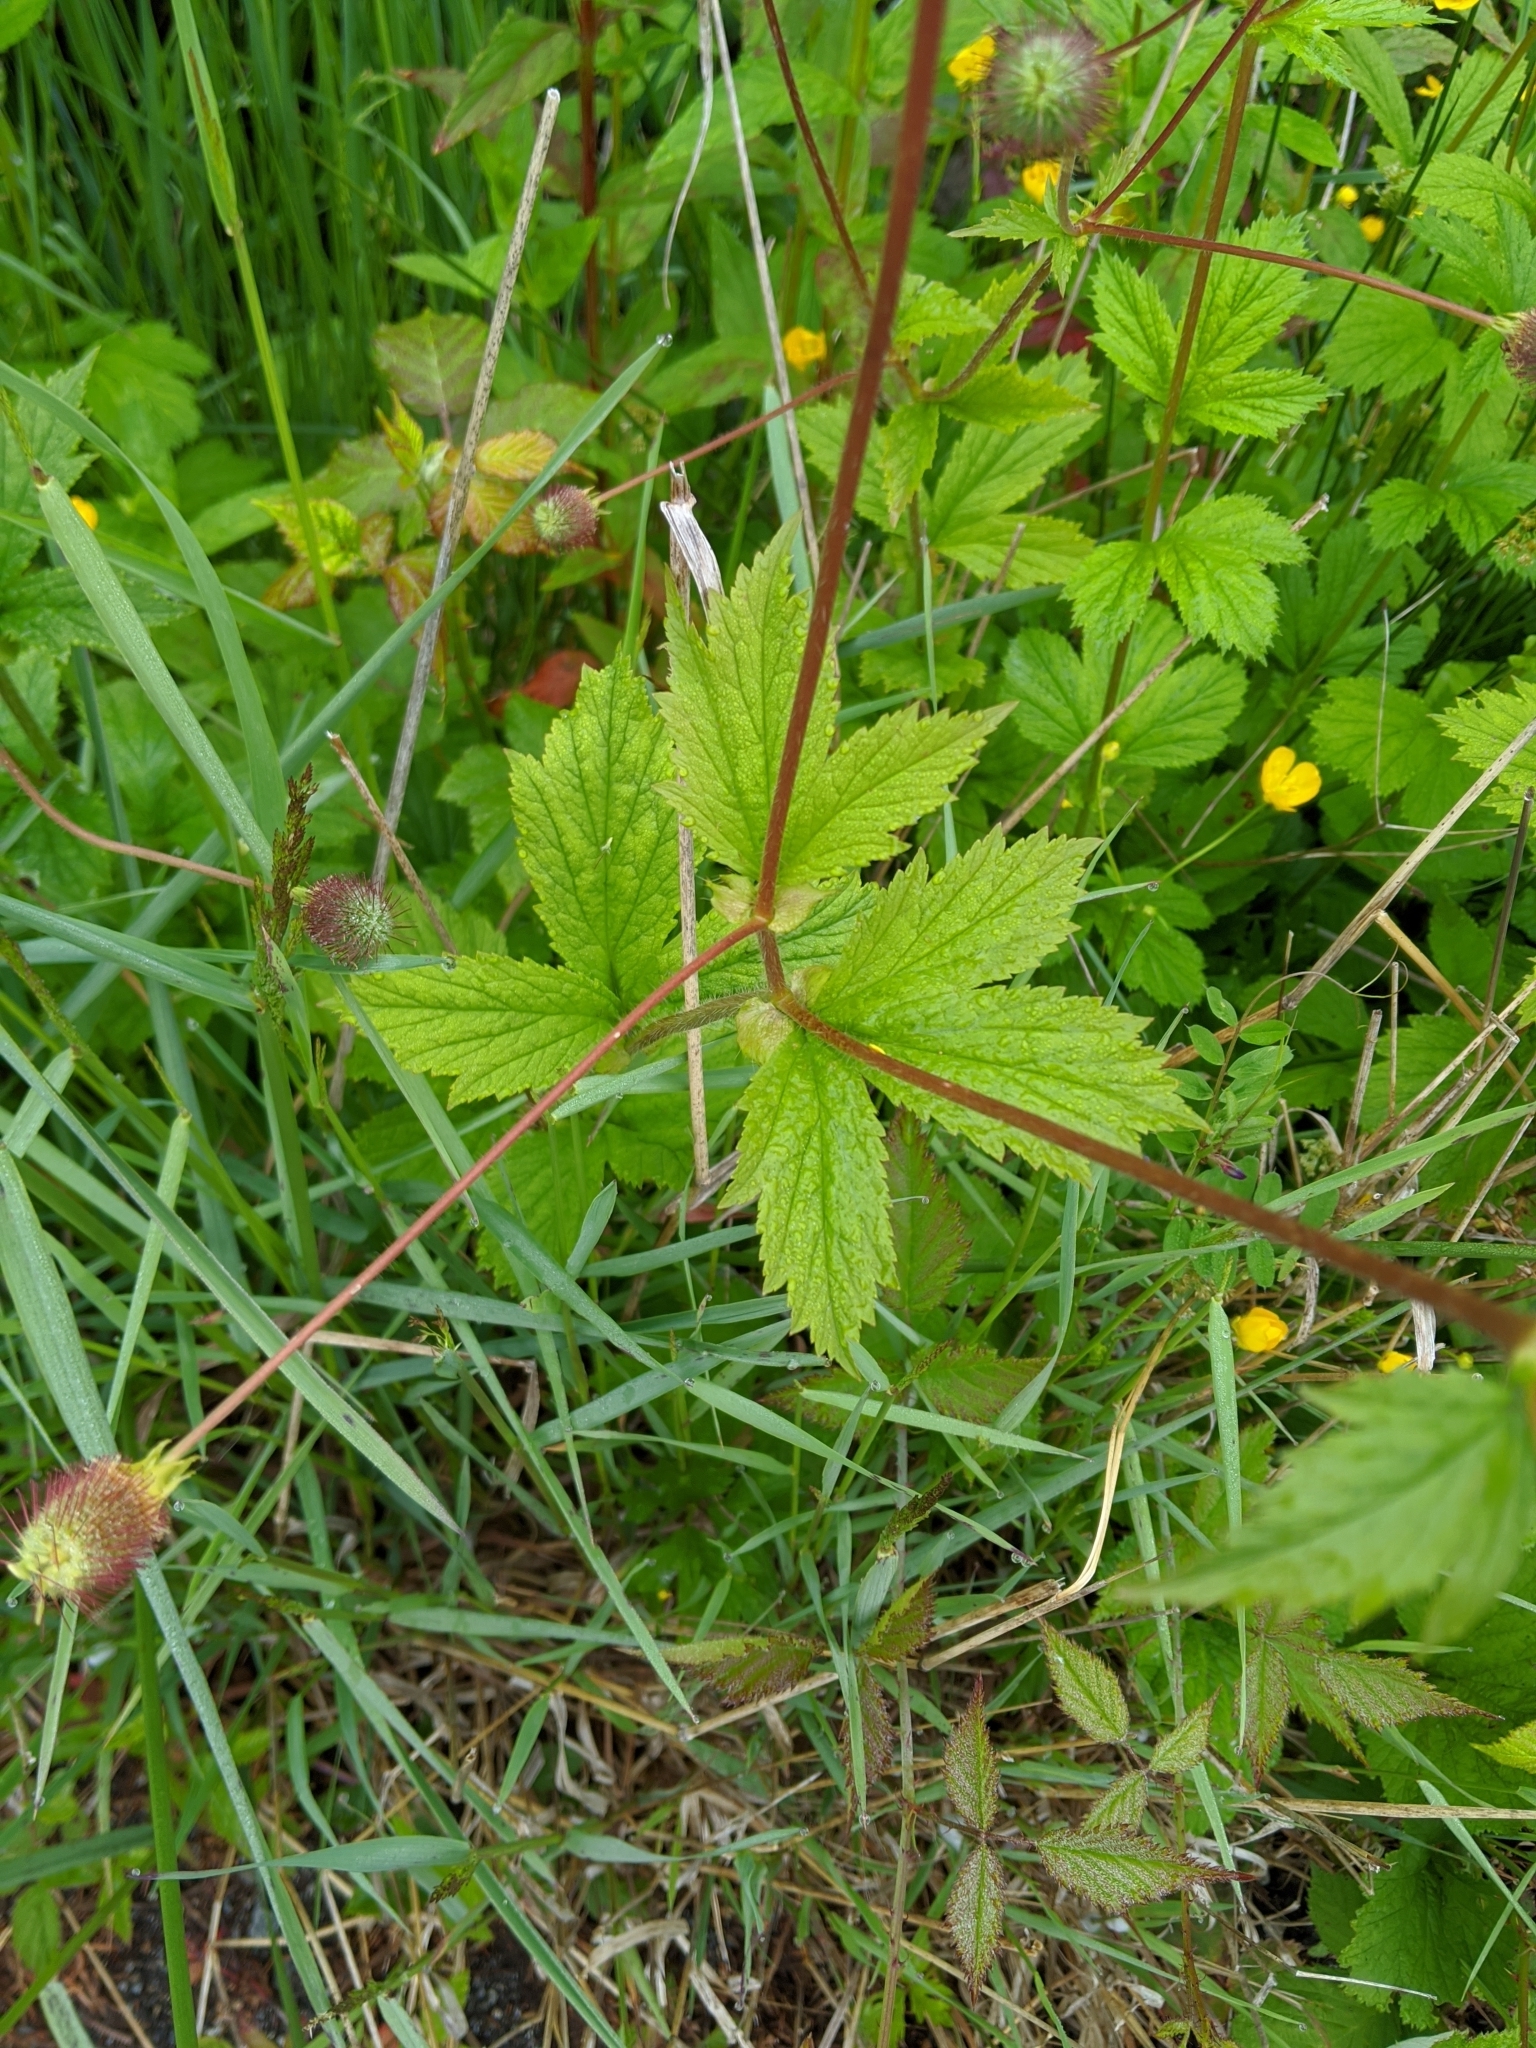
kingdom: Plantae
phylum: Tracheophyta
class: Magnoliopsida
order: Rosales
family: Rosaceae
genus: Geum
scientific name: Geum macrophyllum
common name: Large-leaved avens
